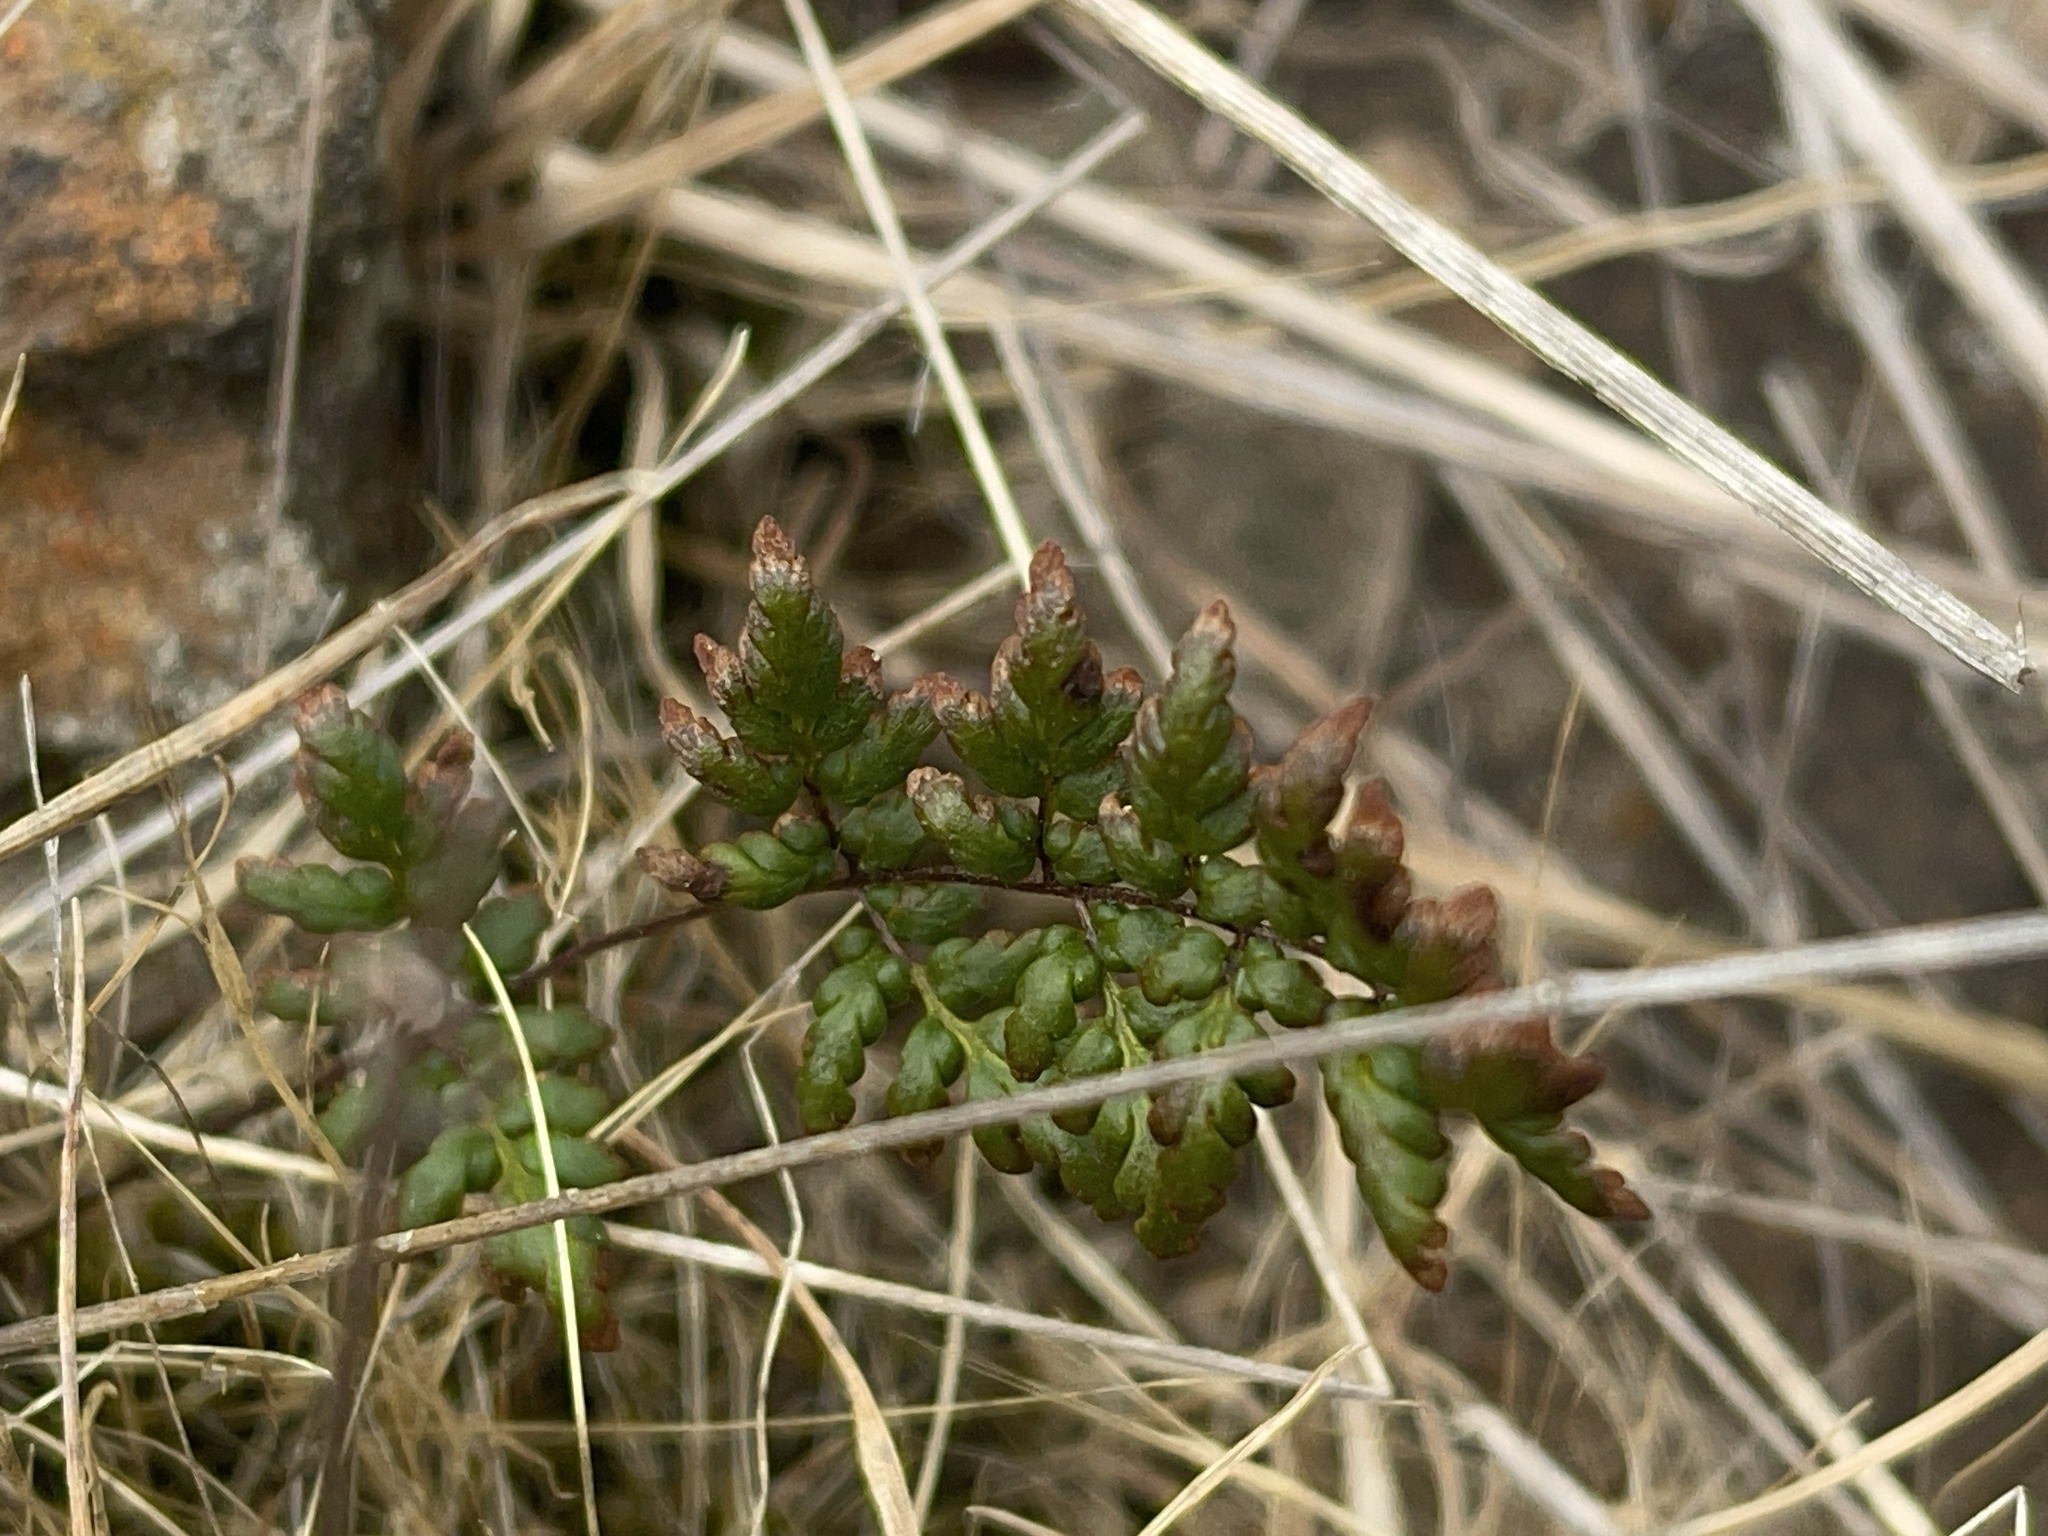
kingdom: Plantae
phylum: Tracheophyta
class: Polypodiopsida
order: Polypodiales
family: Pteridaceae
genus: Cheilanthes
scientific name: Cheilanthes sieberi
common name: Mulga fern
